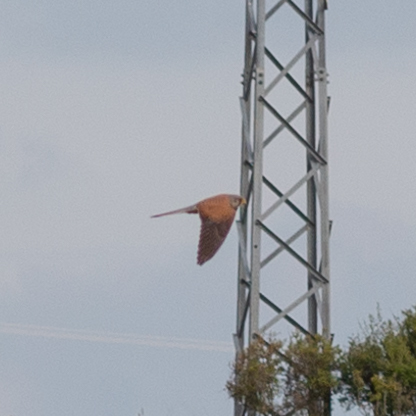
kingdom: Animalia
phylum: Chordata
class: Aves
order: Falconiformes
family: Falconidae
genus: Falco
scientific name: Falco tinnunculus
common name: Common kestrel
